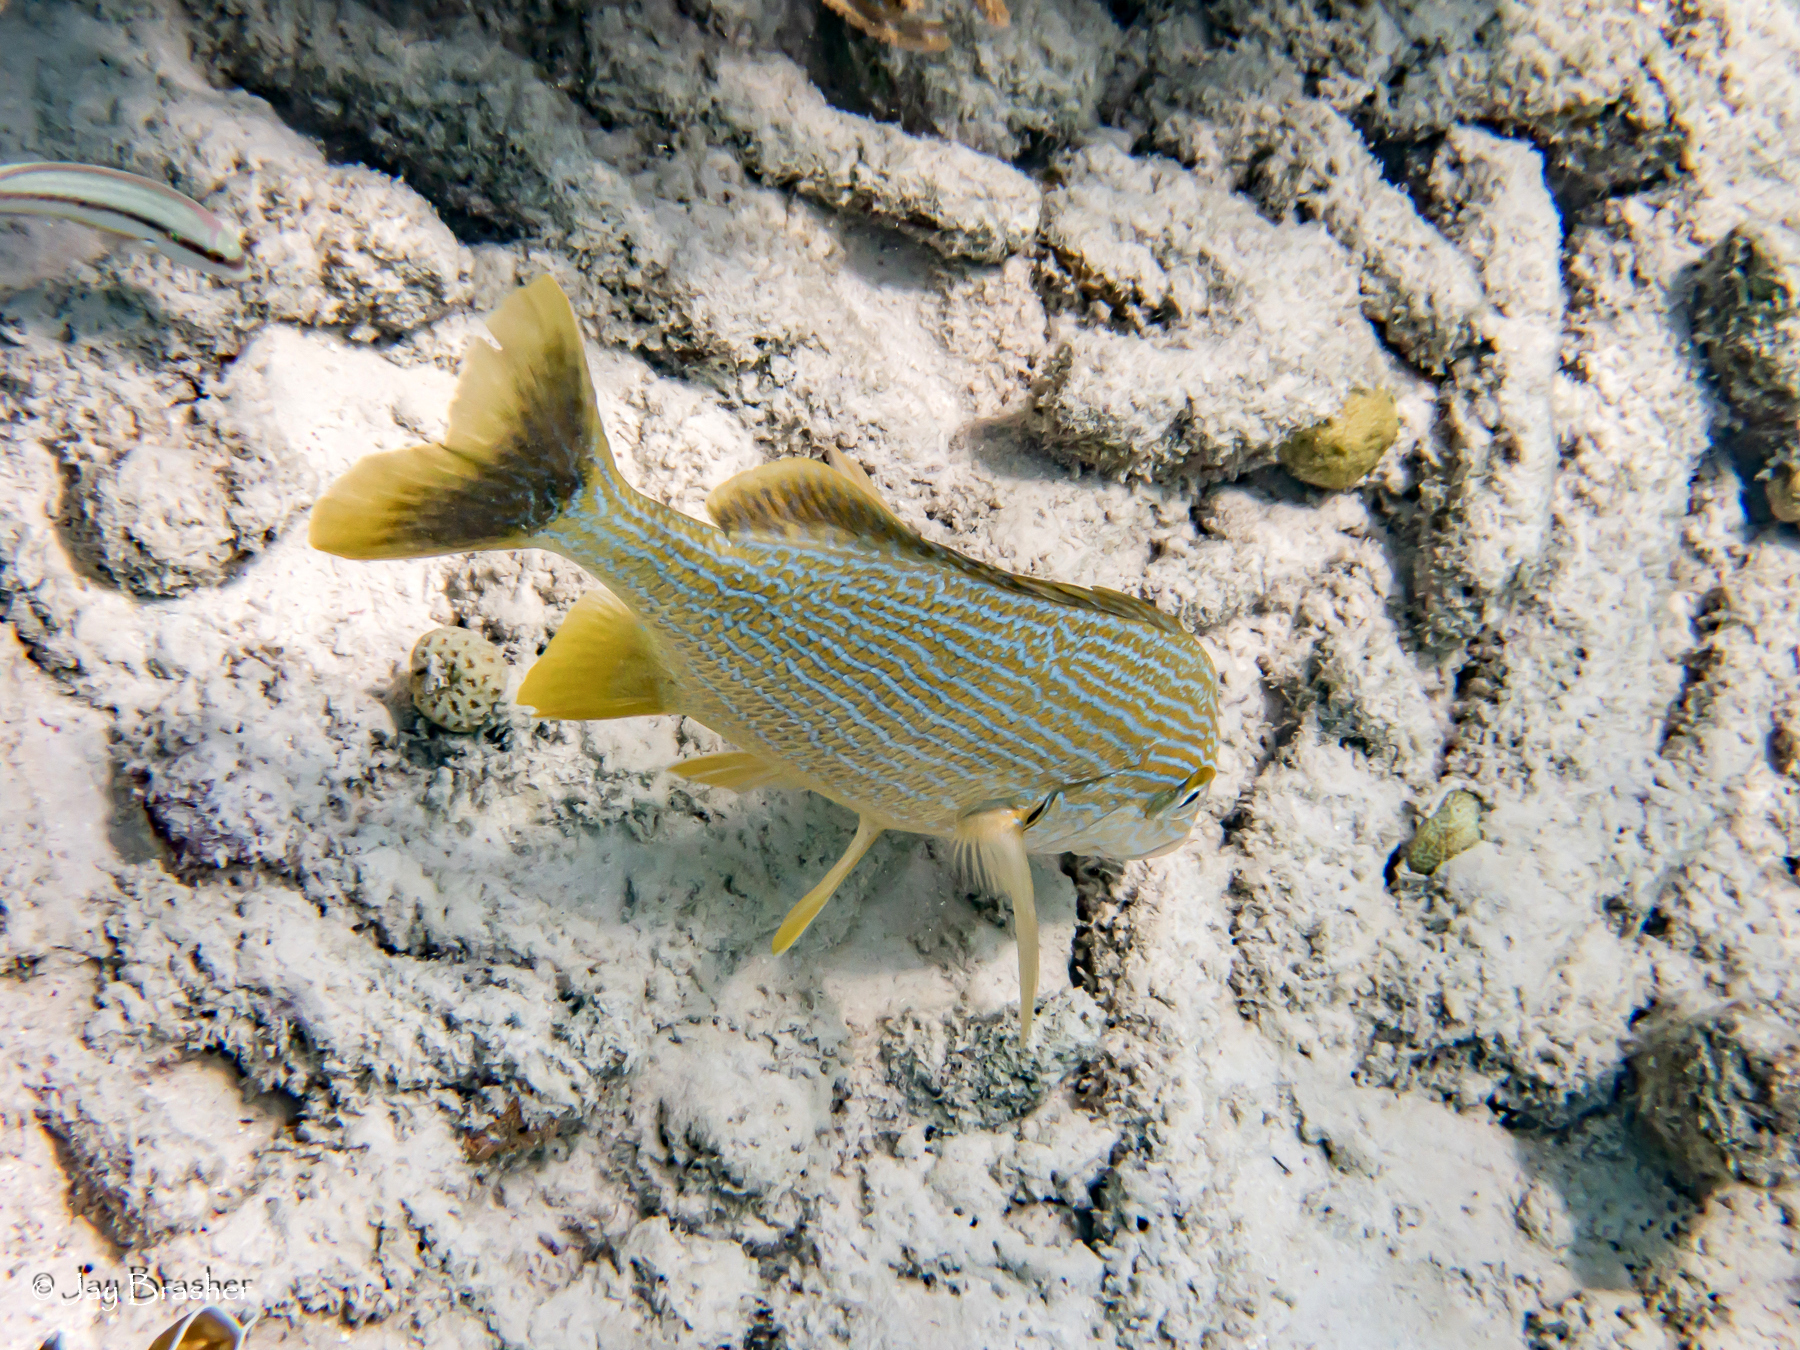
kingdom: Animalia
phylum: Chordata
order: Perciformes
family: Haemulidae
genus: Haemulon
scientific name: Haemulon sciurus
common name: Bluestriped grunt
